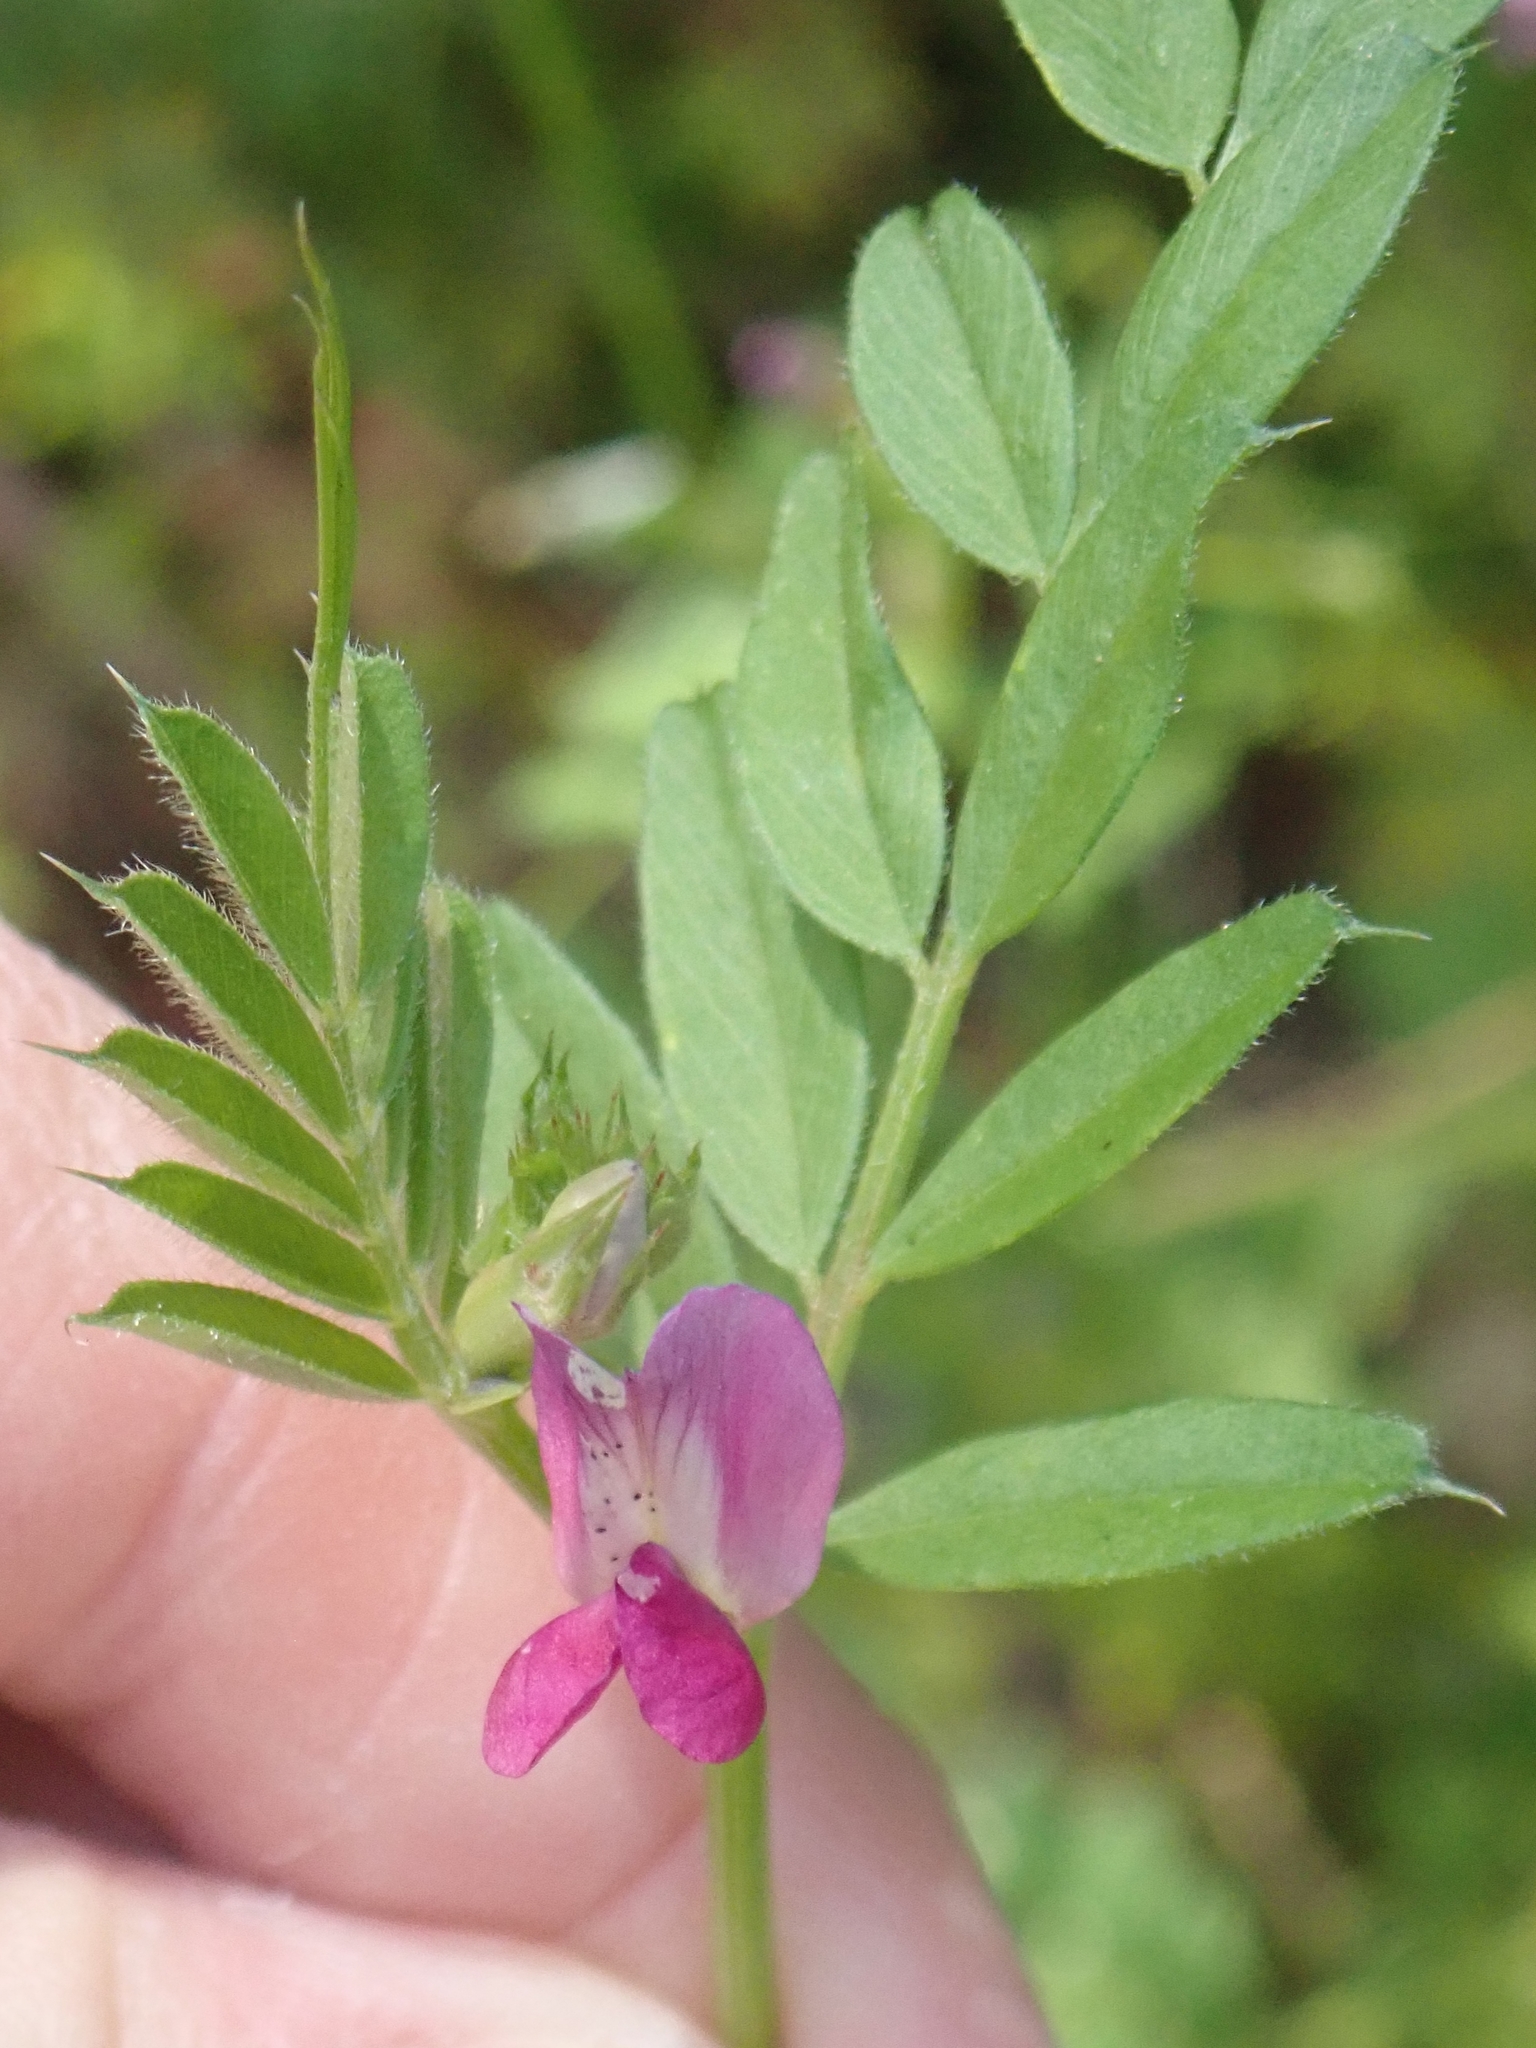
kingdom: Plantae
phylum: Tracheophyta
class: Magnoliopsida
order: Fabales
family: Fabaceae
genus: Vicia
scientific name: Vicia sativa
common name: Garden vetch
